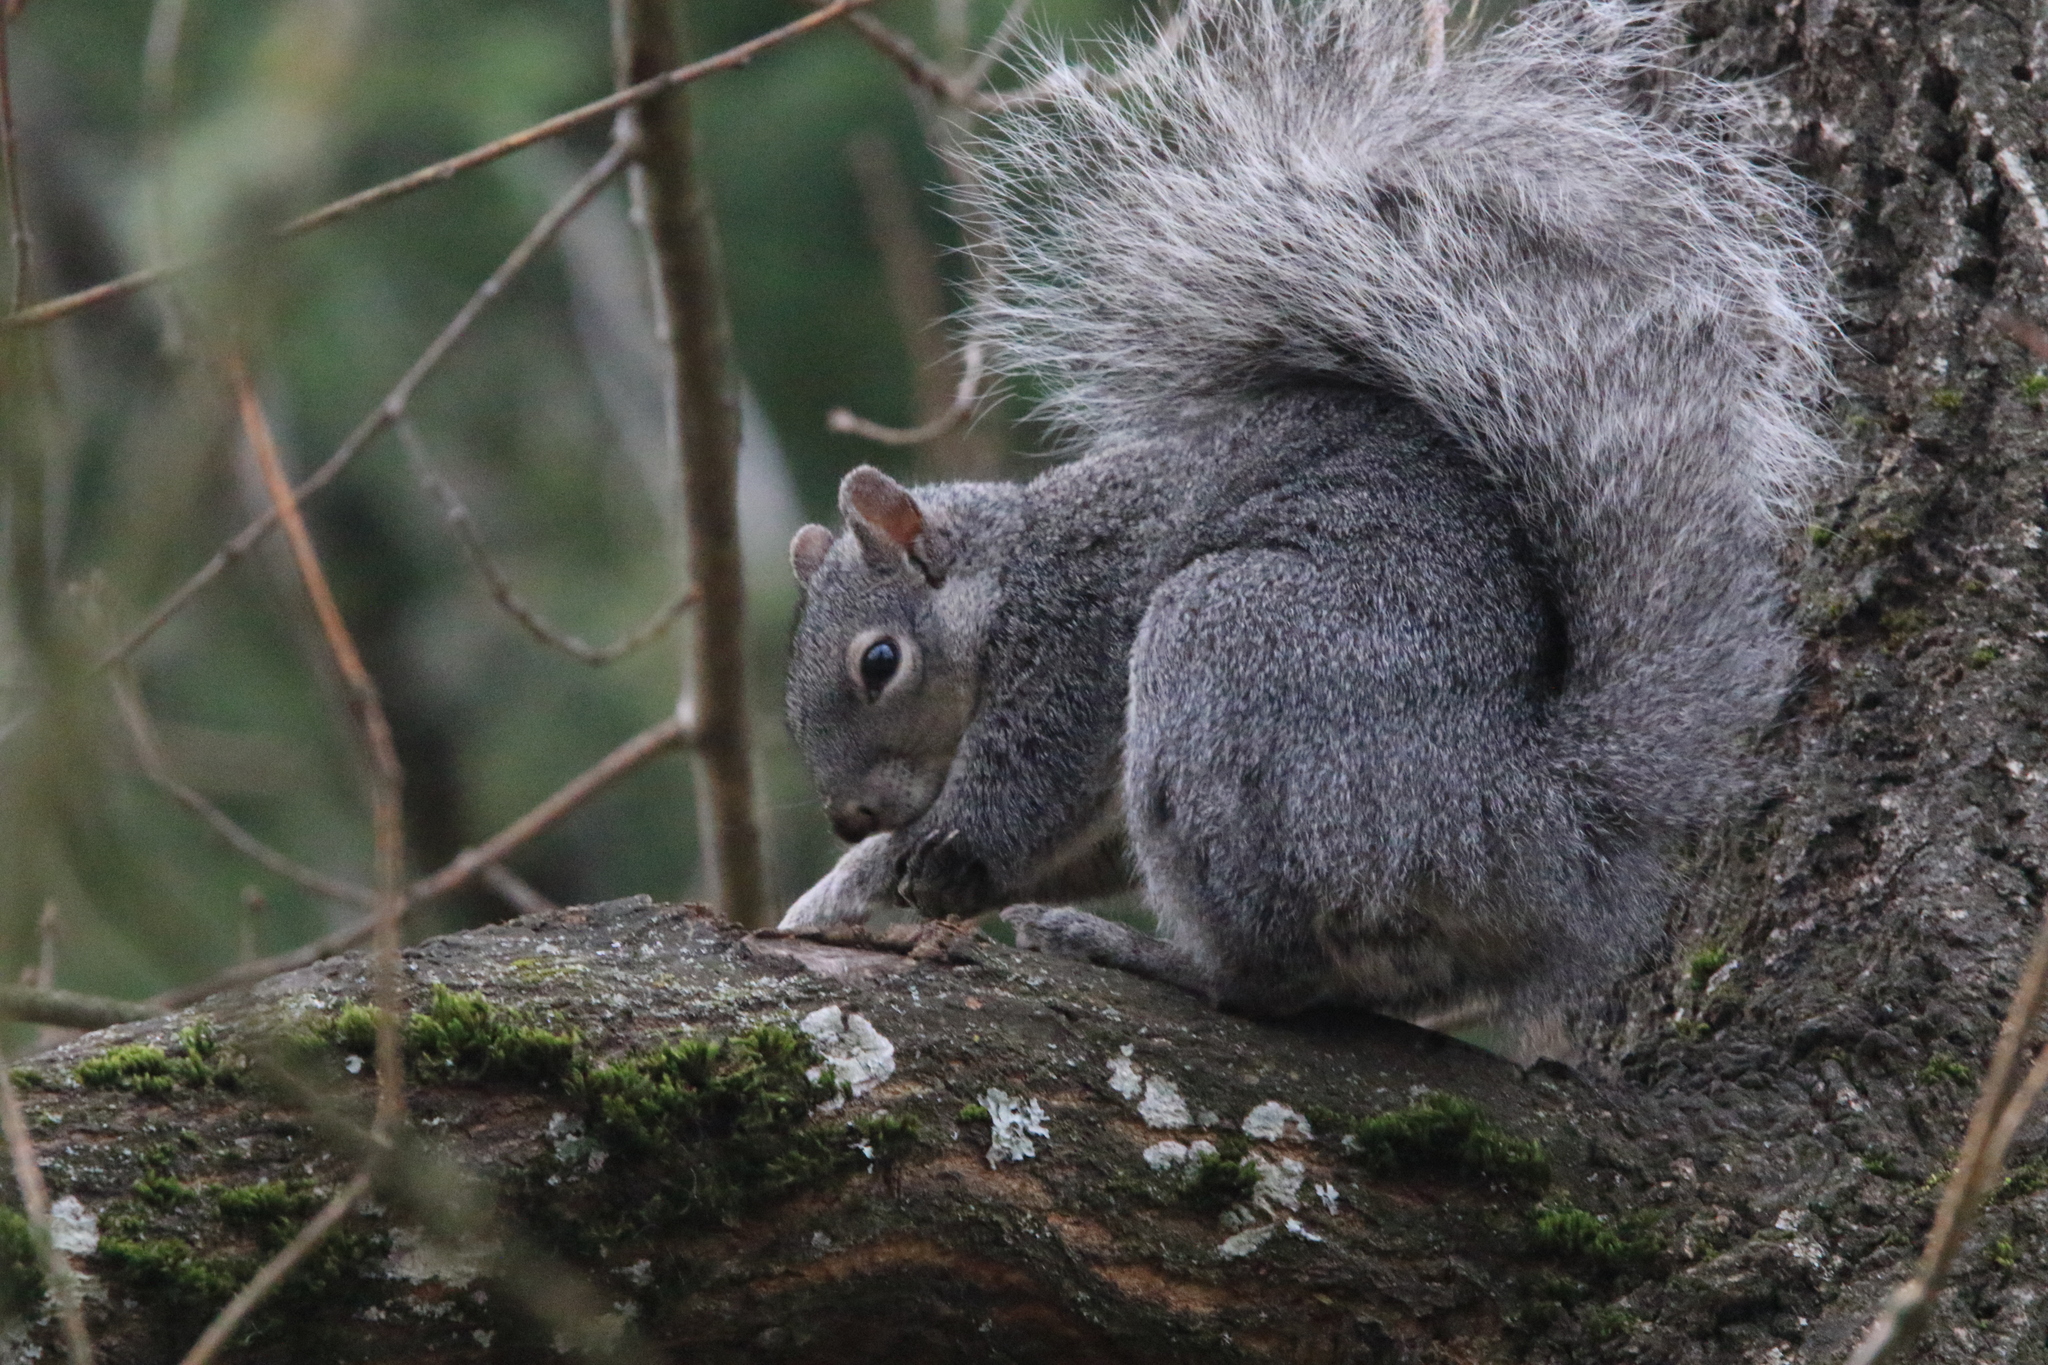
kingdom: Animalia
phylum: Chordata
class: Mammalia
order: Rodentia
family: Sciuridae
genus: Sciurus
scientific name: Sciurus griseus
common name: Western gray squirrel
